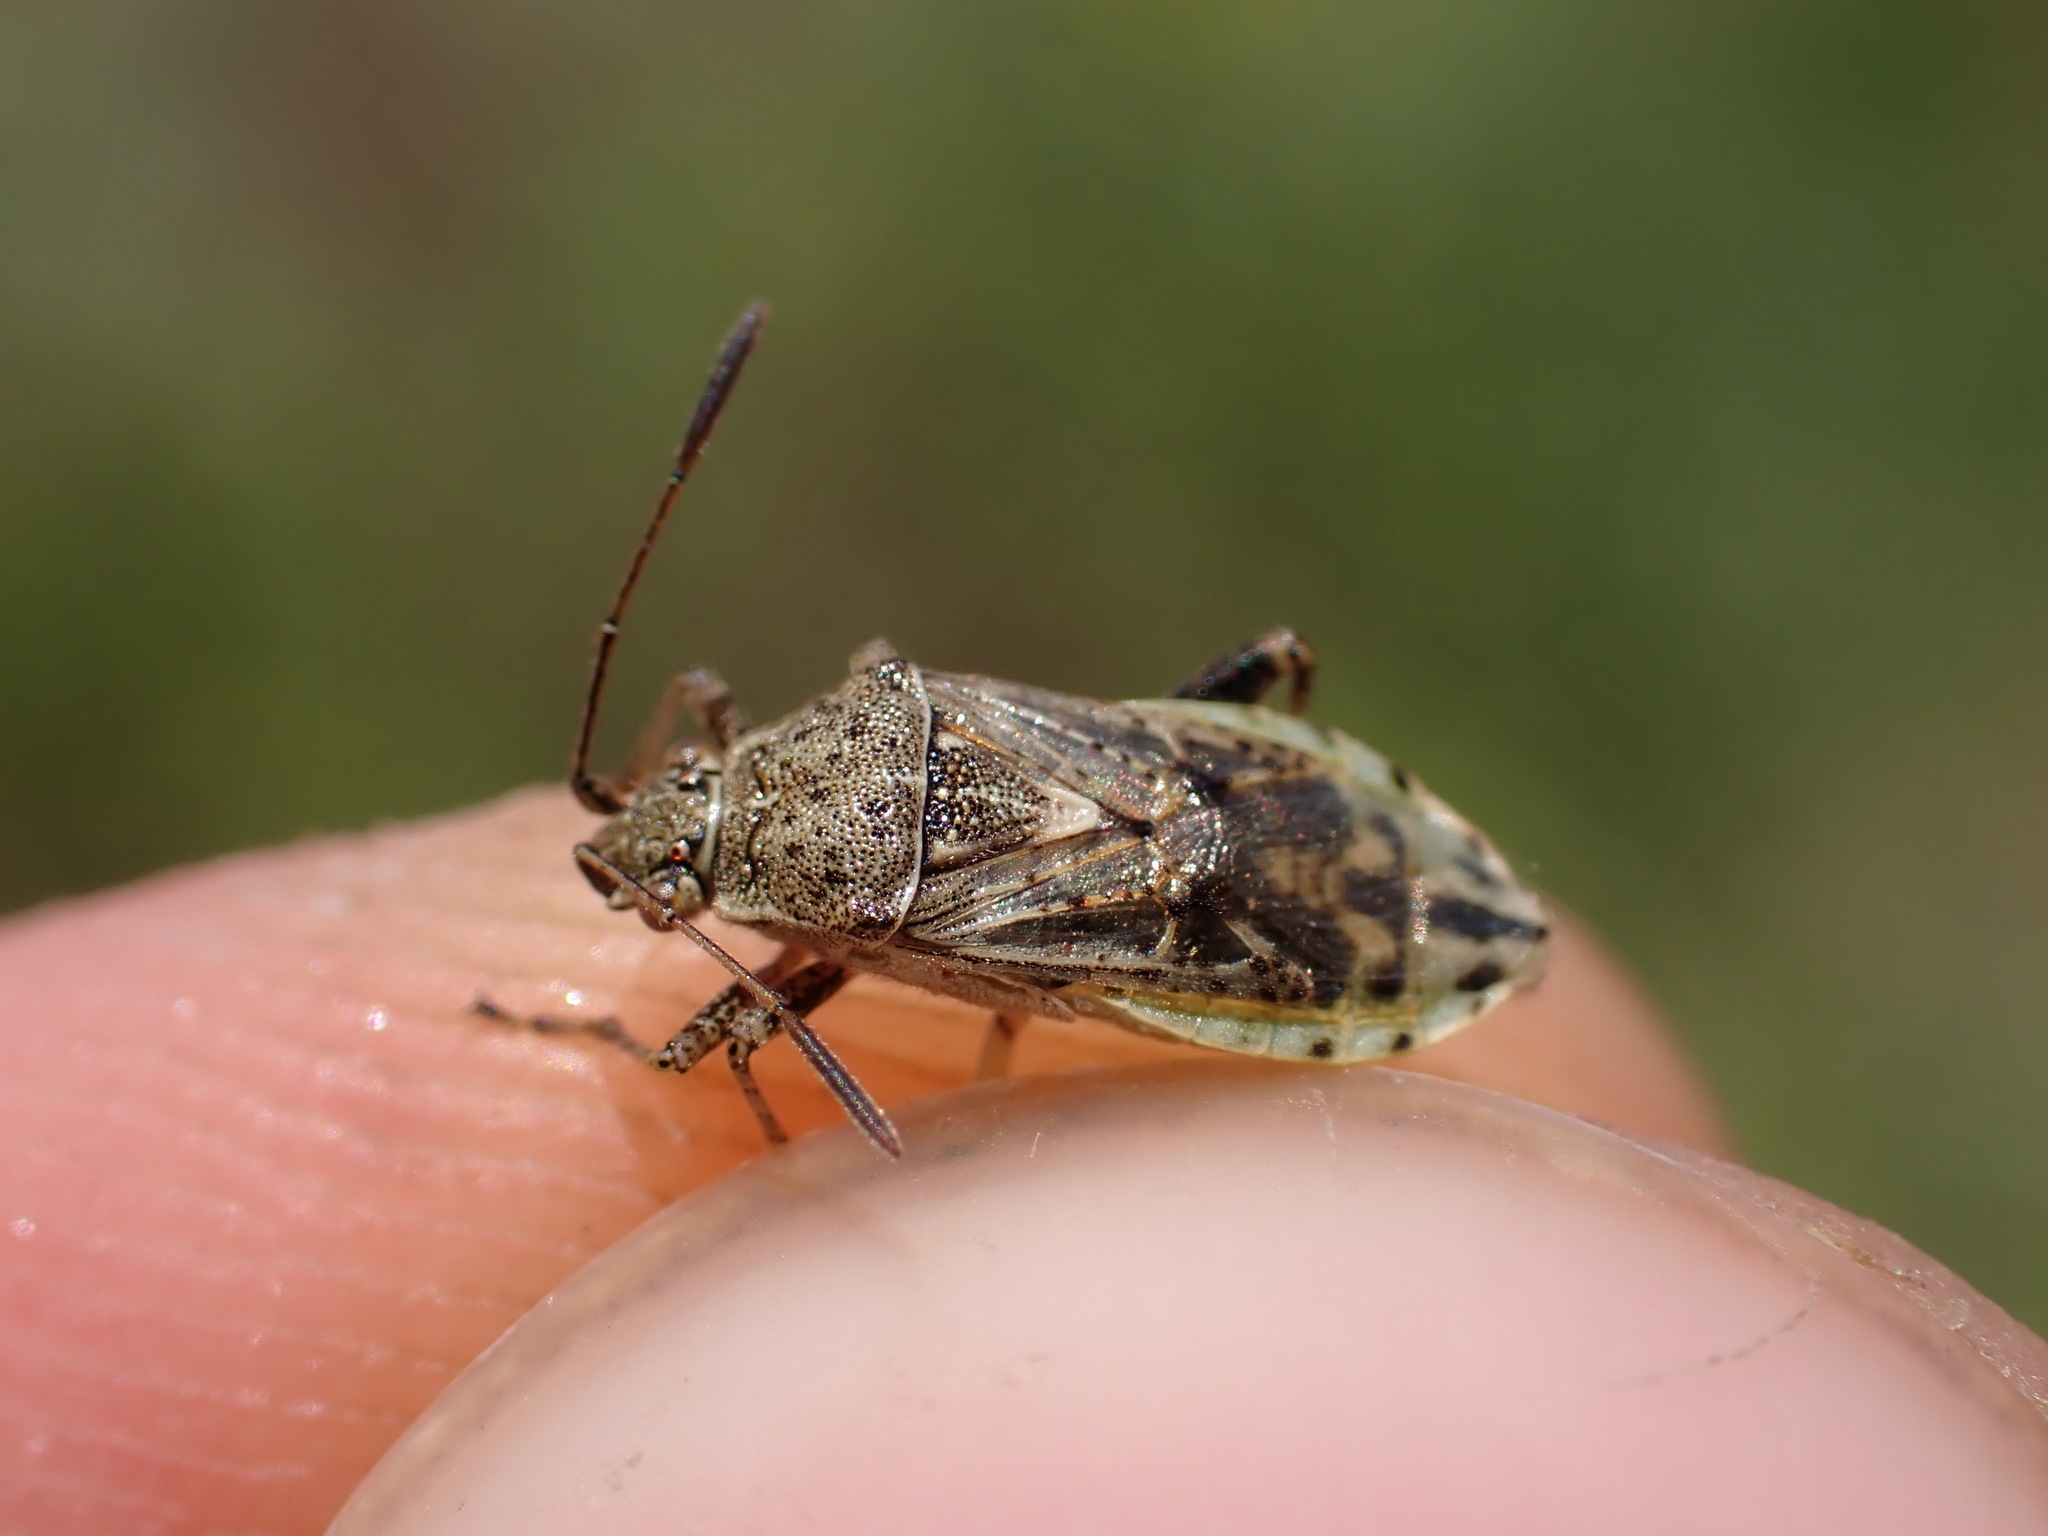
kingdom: Animalia
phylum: Arthropoda
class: Insecta
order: Hemiptera
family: Rhopalidae
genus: Stictopleurus
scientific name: Stictopleurus punctatonervosus
